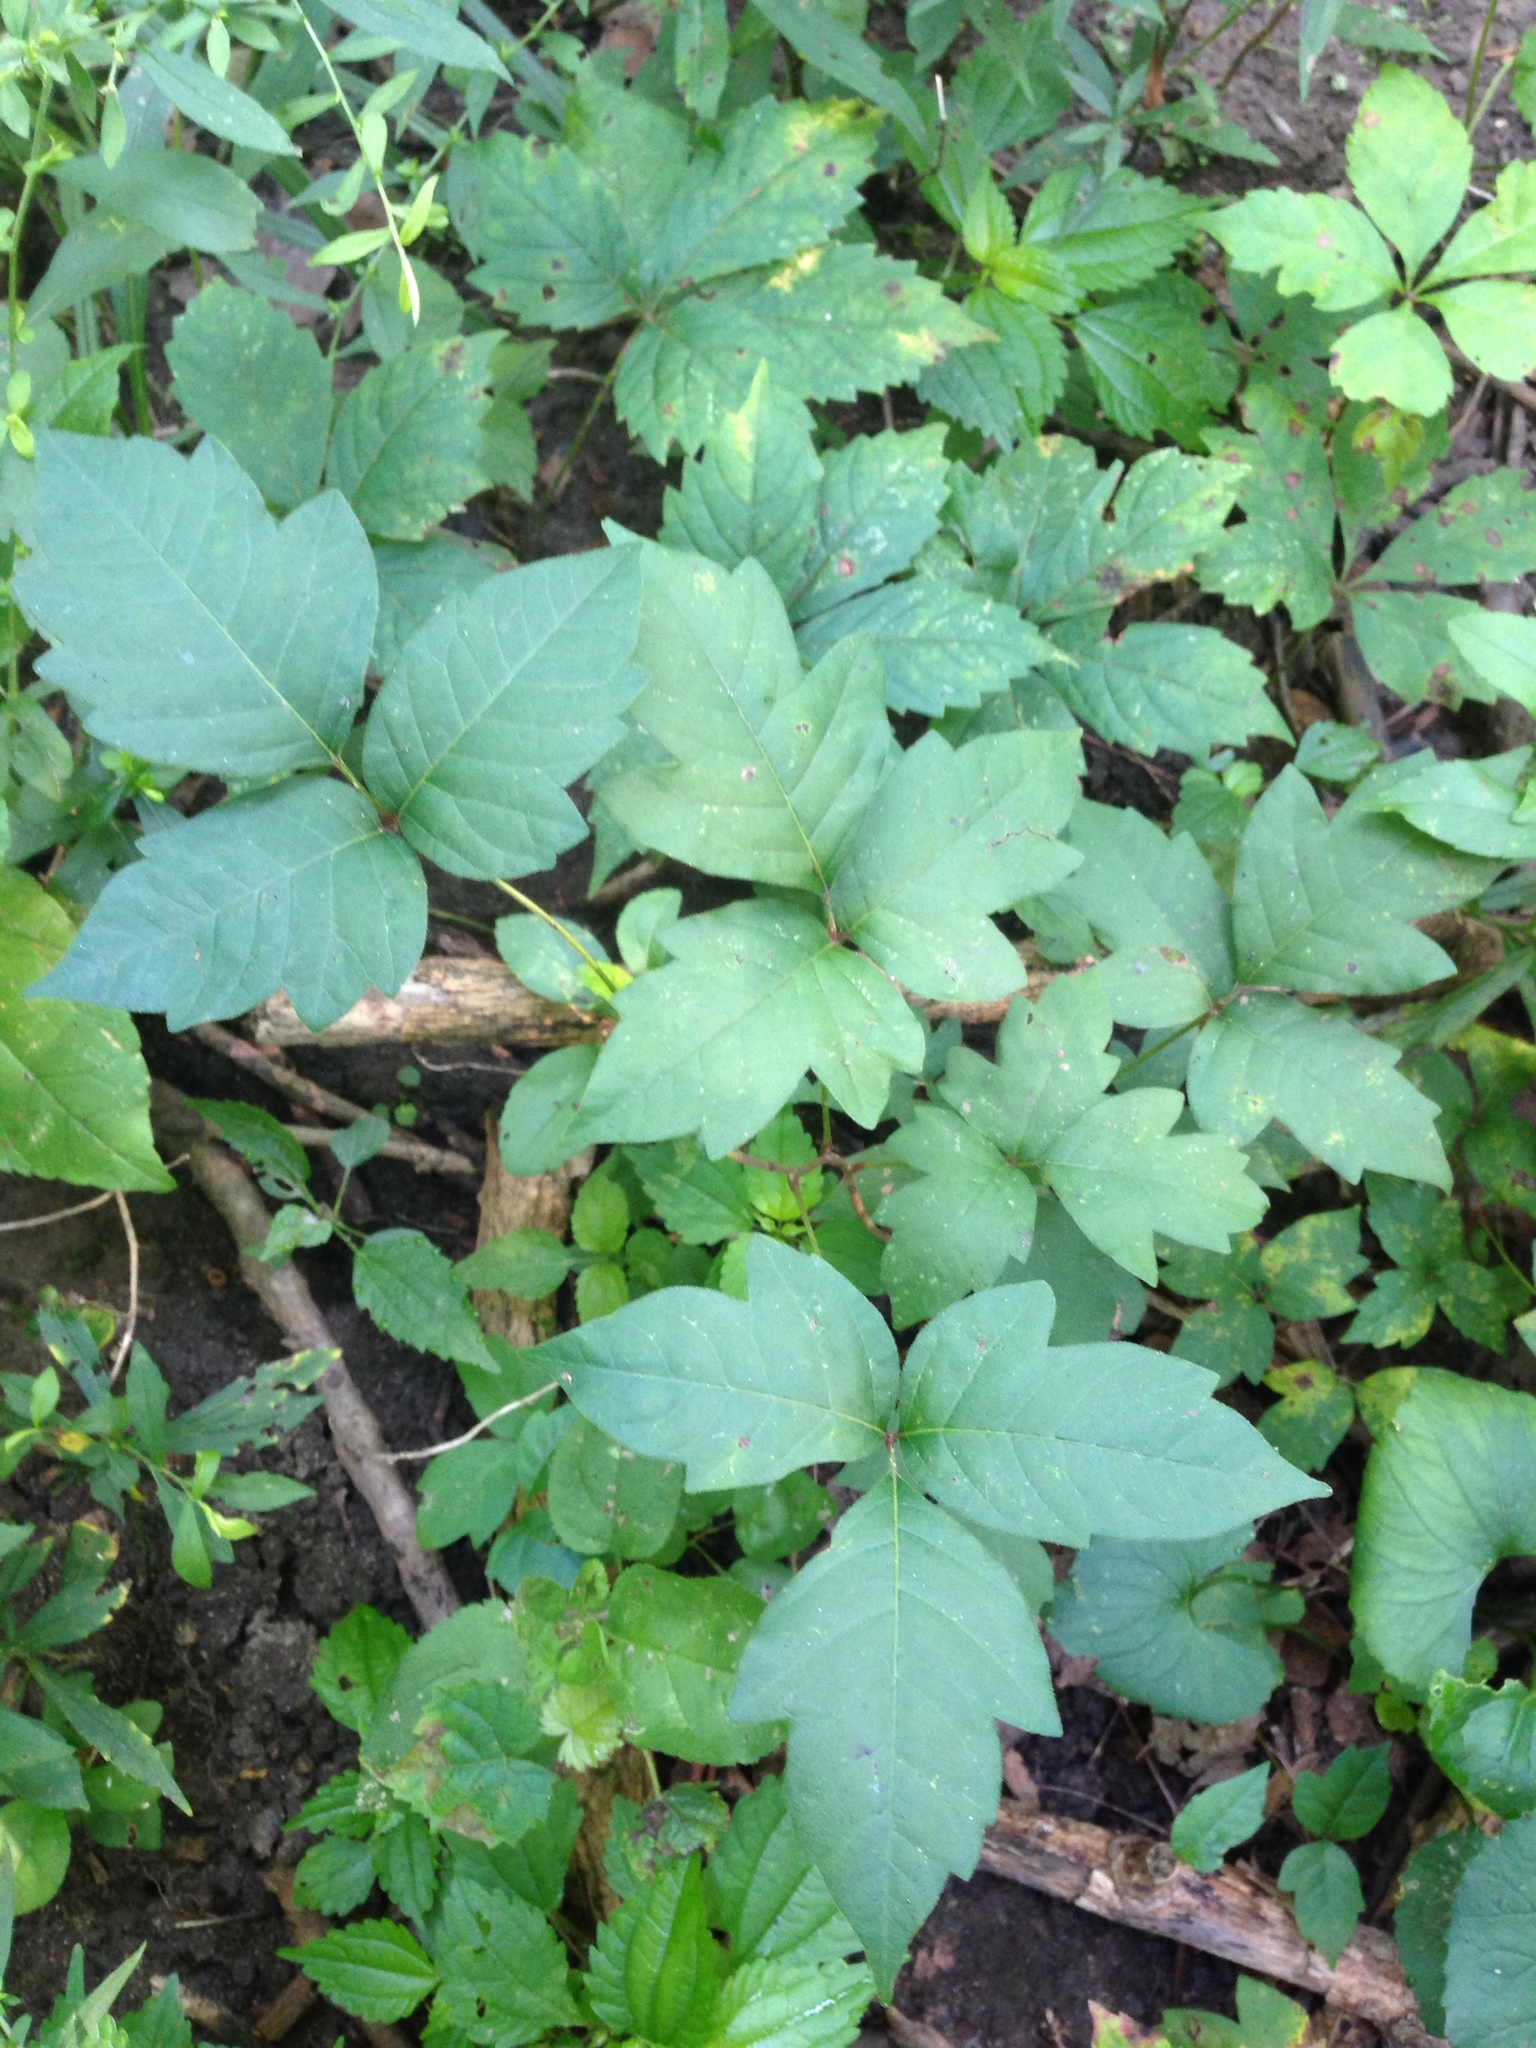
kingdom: Plantae
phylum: Tracheophyta
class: Magnoliopsida
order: Sapindales
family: Anacardiaceae
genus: Toxicodendron
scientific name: Toxicodendron radicans
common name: Poison ivy
